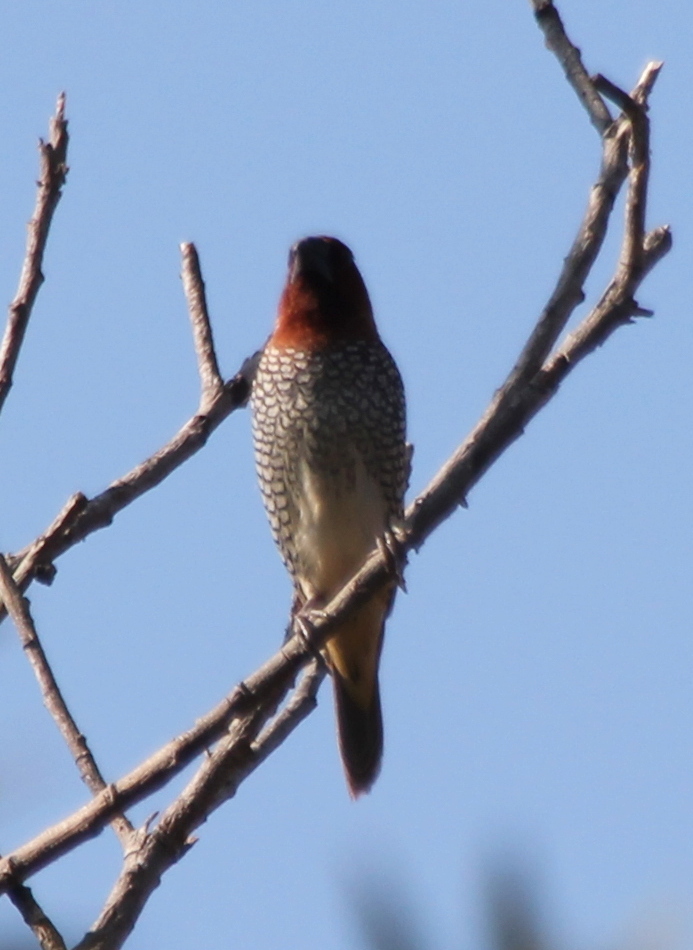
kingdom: Animalia
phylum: Chordata
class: Aves
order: Passeriformes
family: Estrildidae
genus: Lonchura
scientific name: Lonchura punctulata
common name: Scaly-breasted munia
